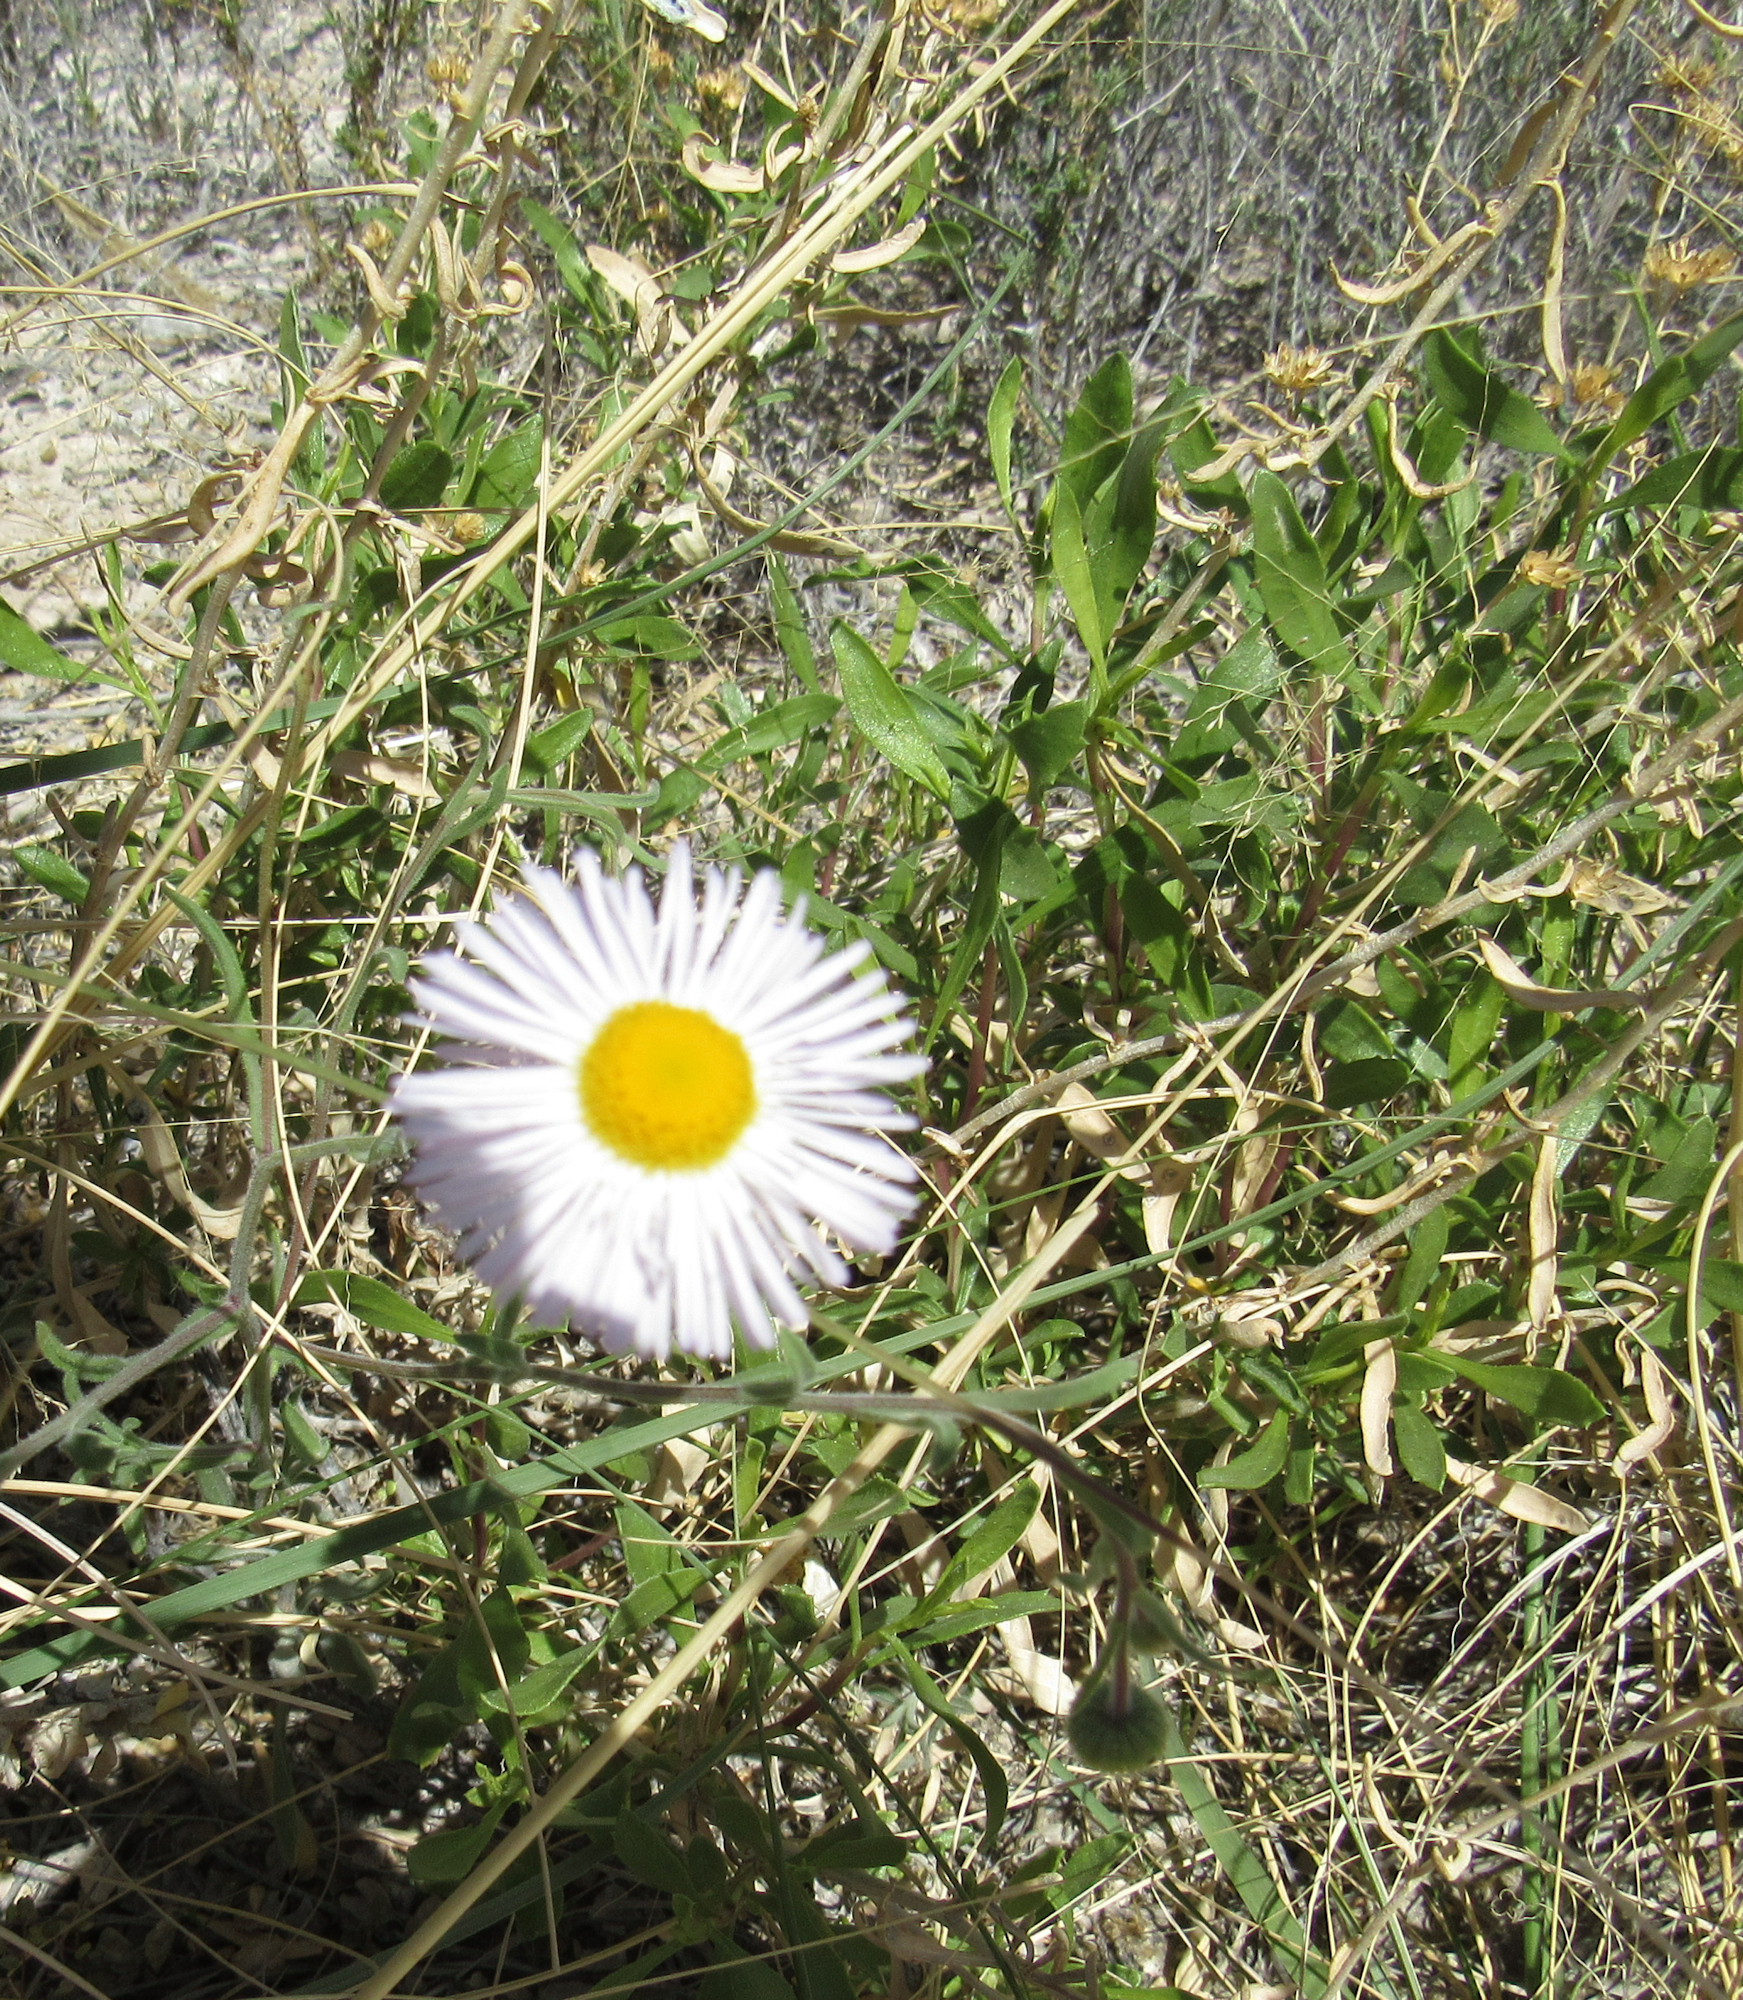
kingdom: Plantae
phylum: Tracheophyta
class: Magnoliopsida
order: Asterales
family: Asteraceae
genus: Erigeron
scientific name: Erigeron divergens
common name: Diffuse fleabane
